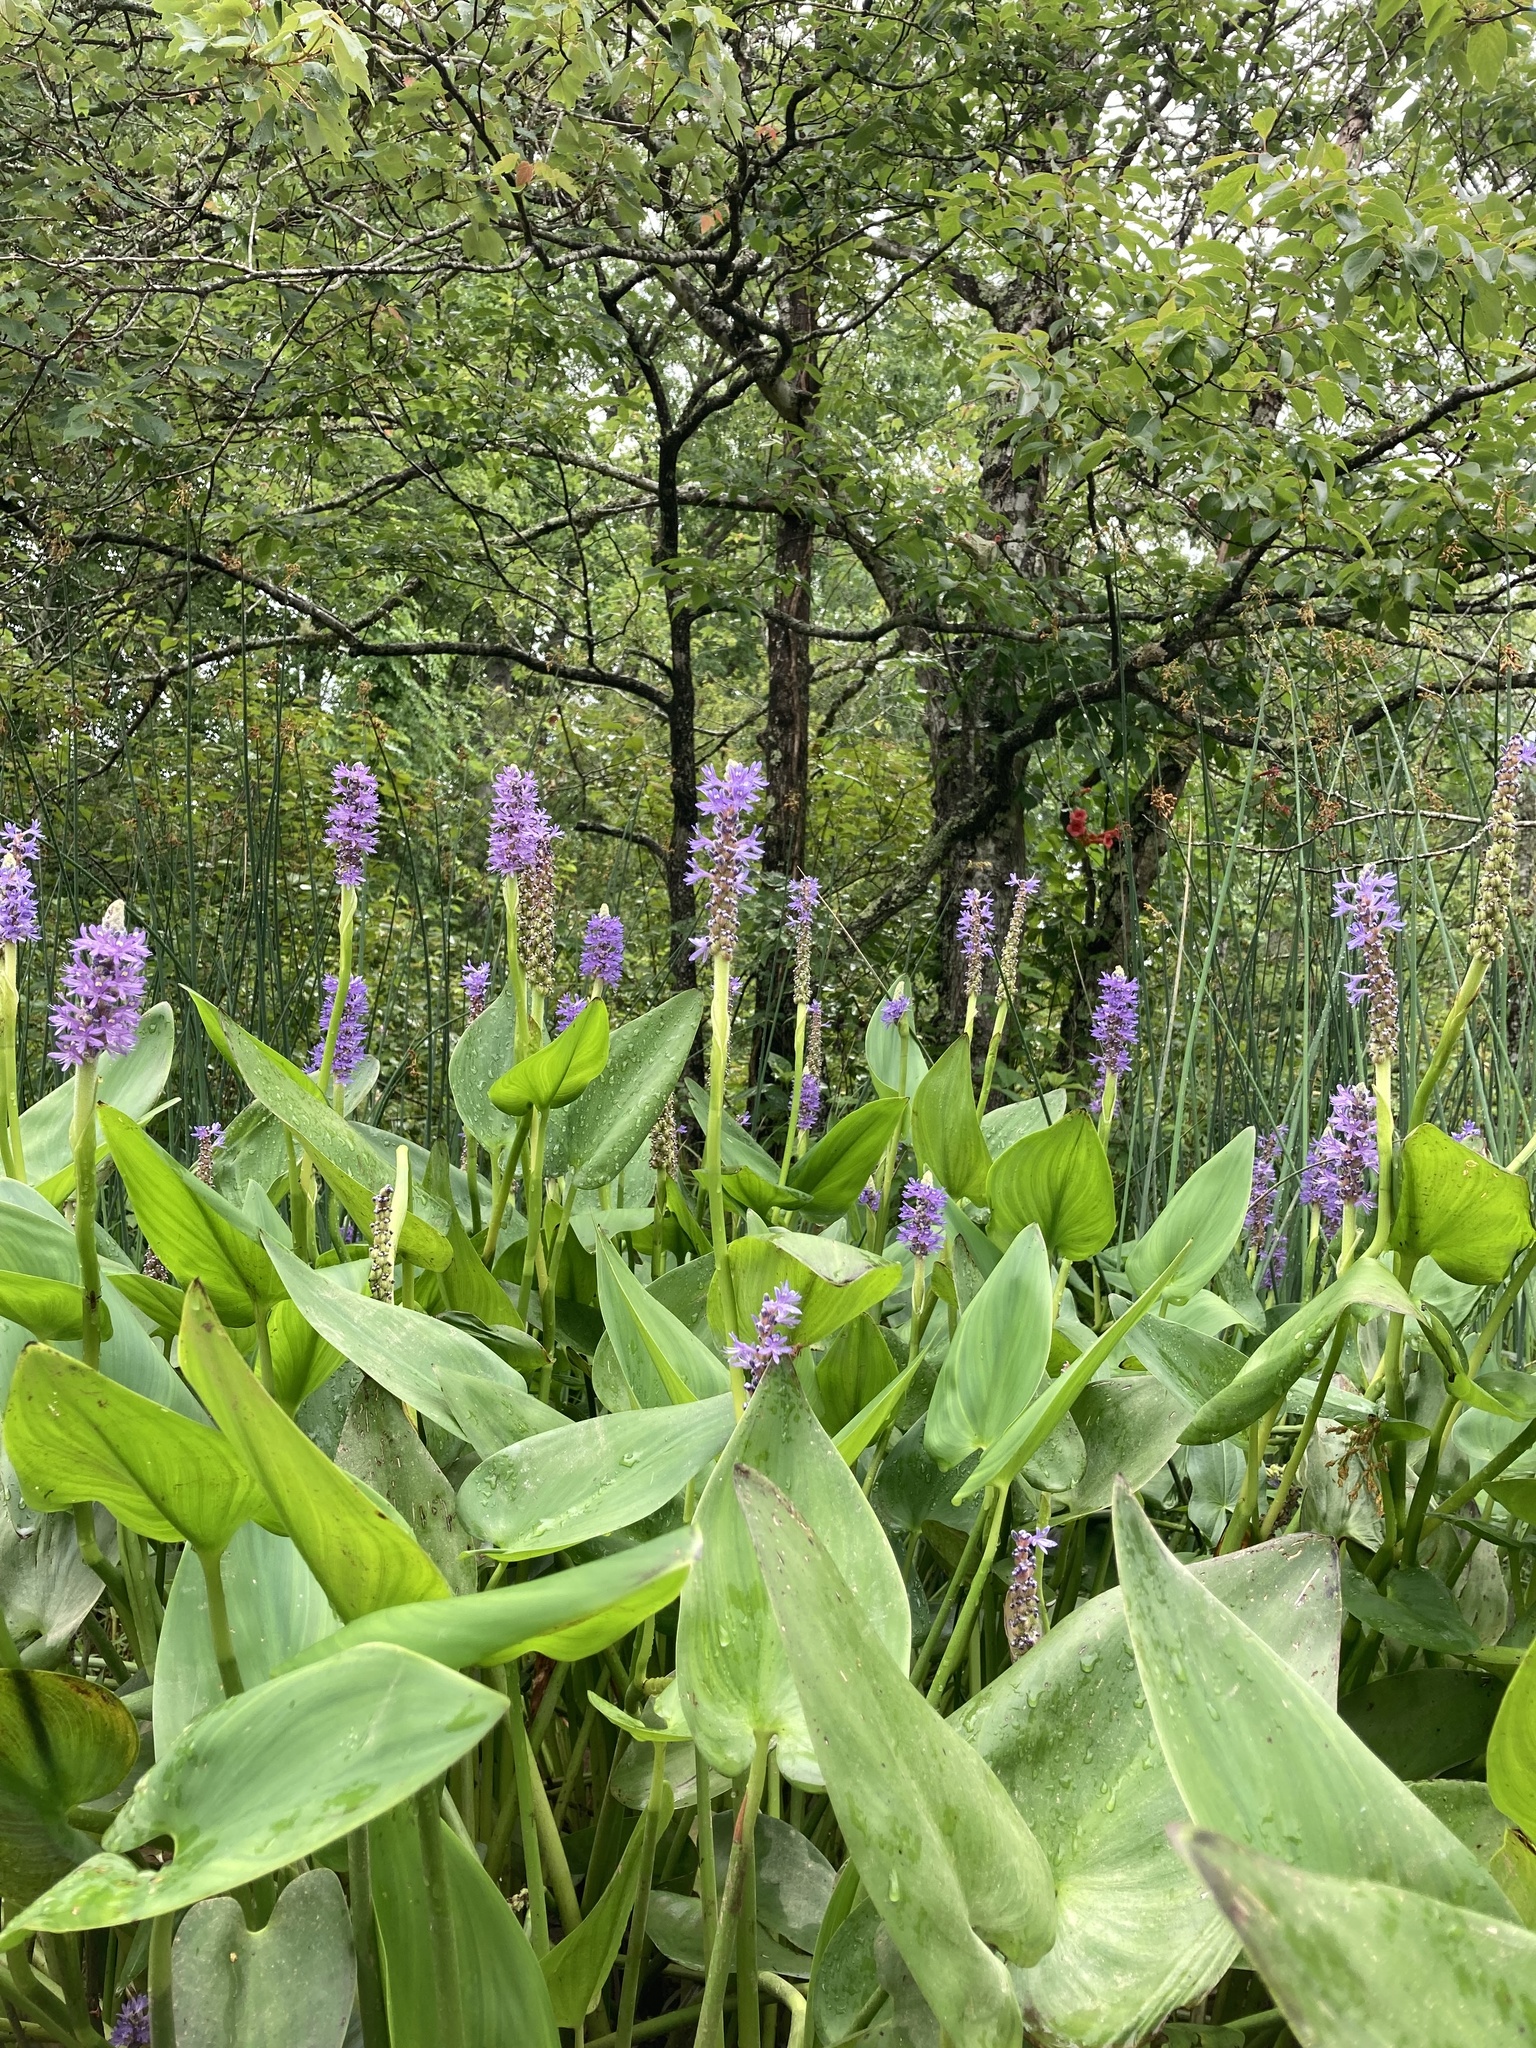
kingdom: Plantae
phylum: Tracheophyta
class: Liliopsida
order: Commelinales
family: Pontederiaceae
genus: Pontederia
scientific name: Pontederia cordata
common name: Pickerelweed
